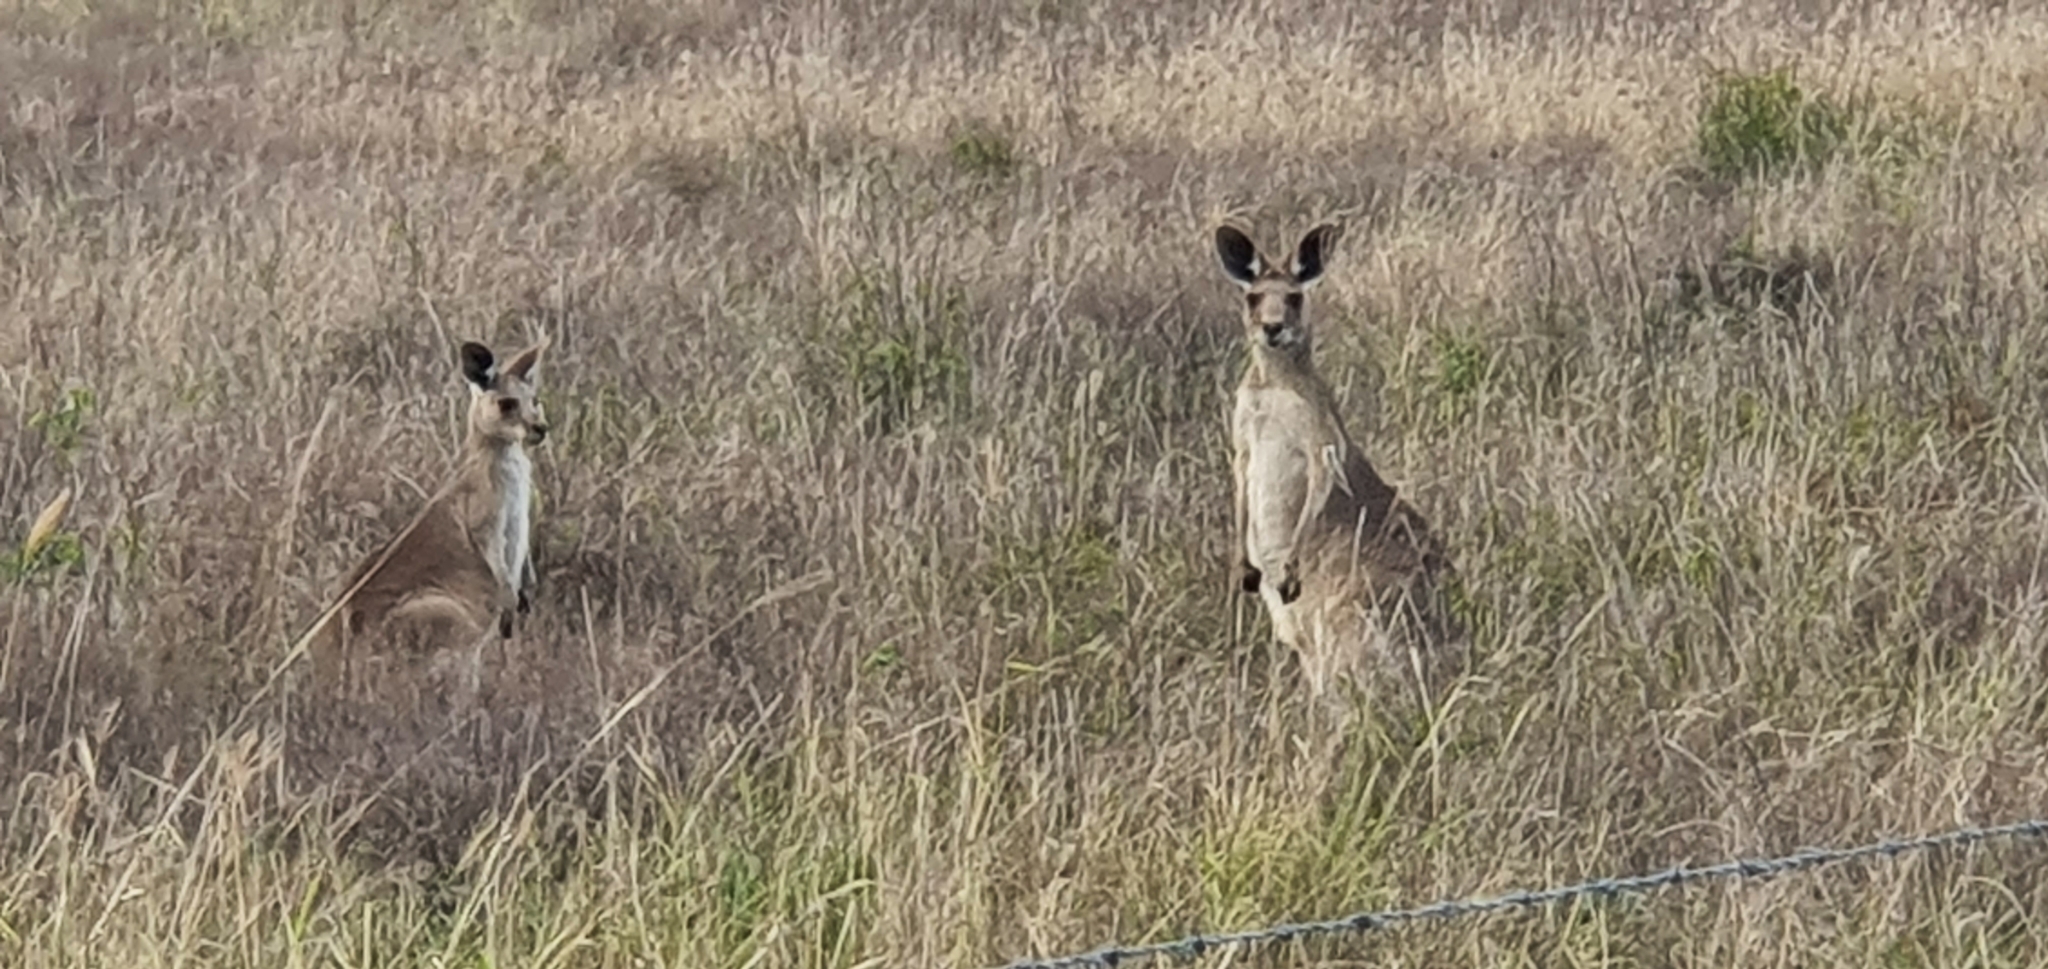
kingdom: Animalia
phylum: Chordata
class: Mammalia
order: Diprotodontia
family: Macropodidae
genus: Macropus
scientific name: Macropus giganteus
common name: Eastern grey kangaroo
